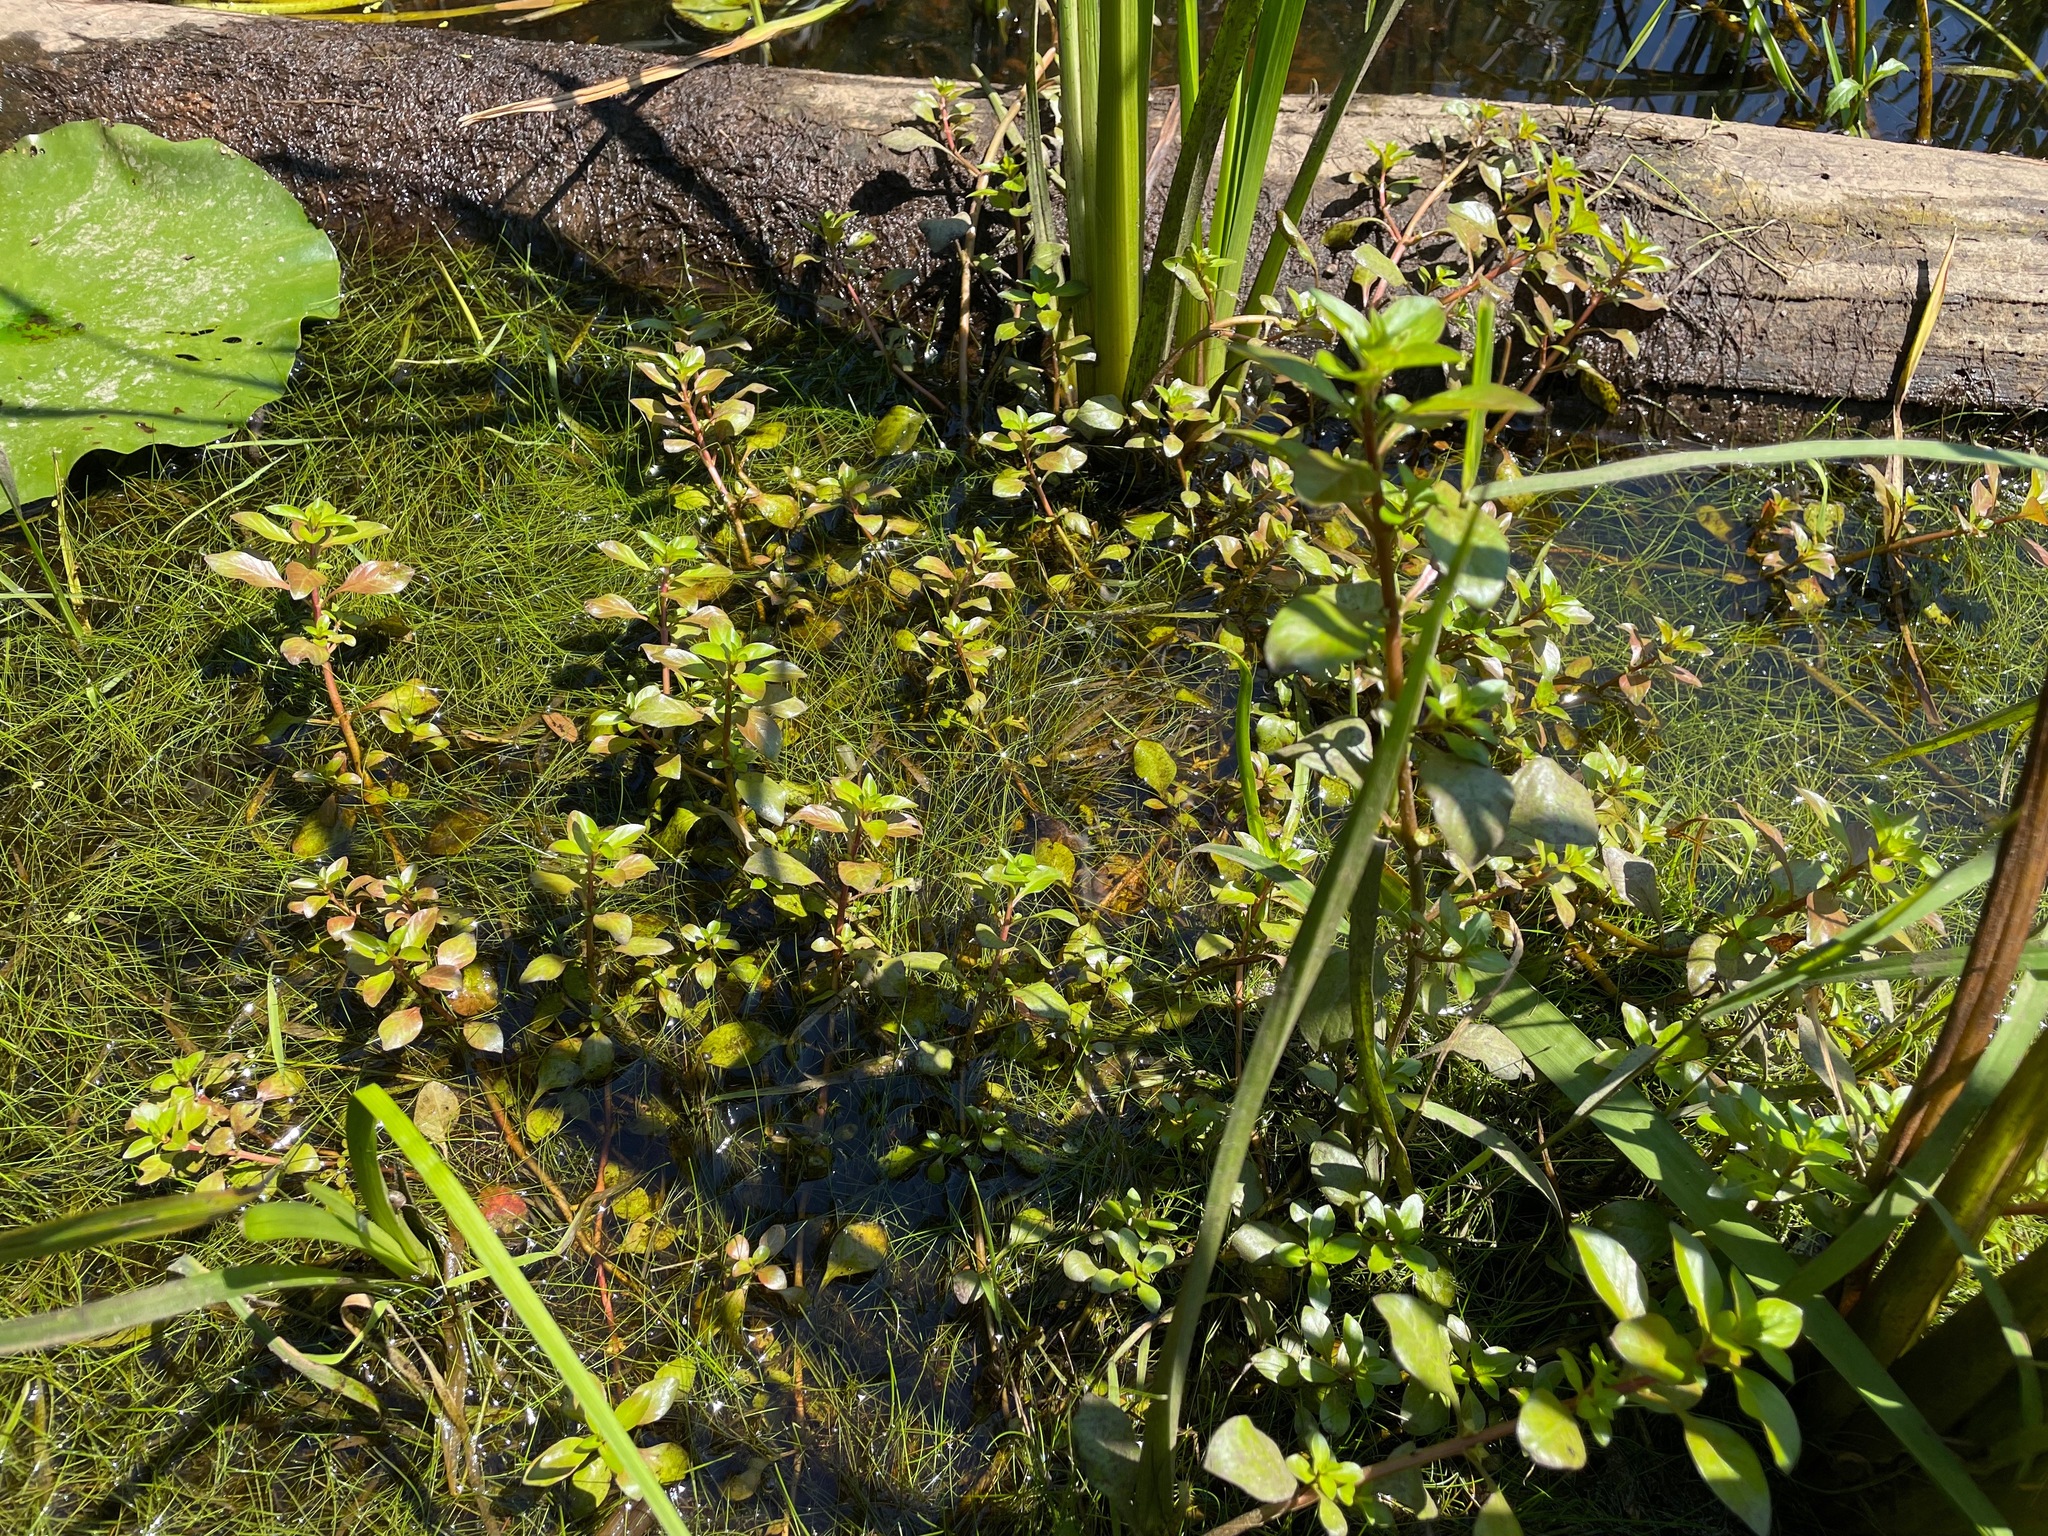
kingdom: Plantae
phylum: Tracheophyta
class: Magnoliopsida
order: Myrtales
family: Onagraceae
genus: Ludwigia
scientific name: Ludwigia palustris
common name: Hampshire-purslane
